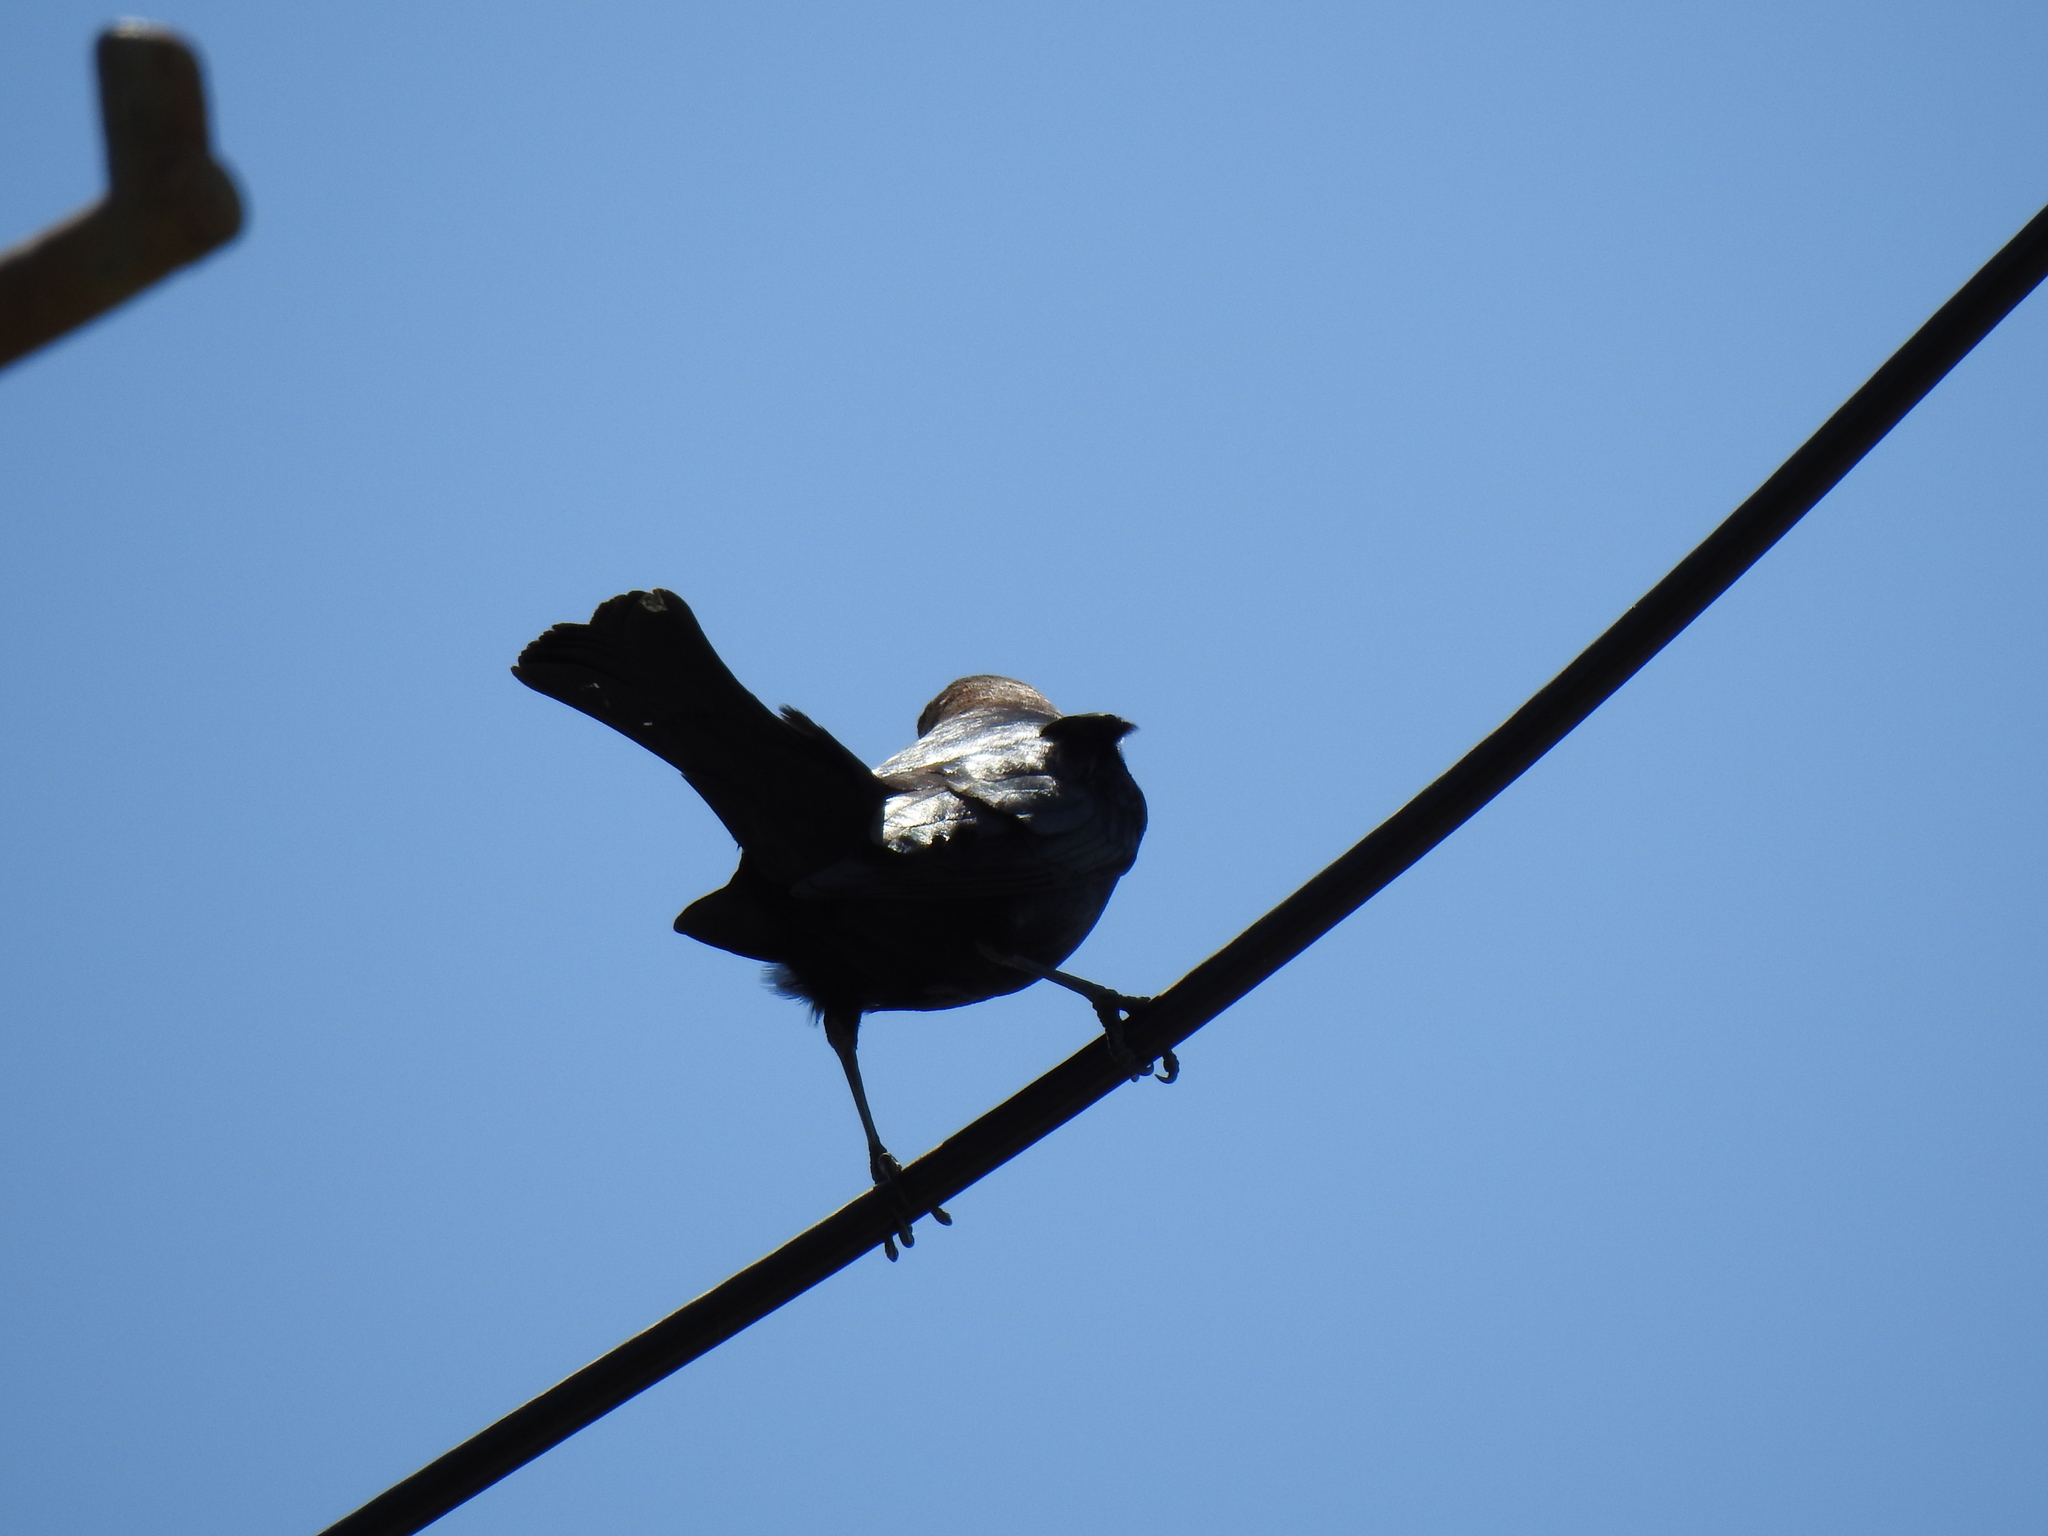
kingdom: Animalia
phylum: Chordata
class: Aves
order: Passeriformes
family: Icteridae
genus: Molothrus
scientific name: Molothrus ater
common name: Brown-headed cowbird
